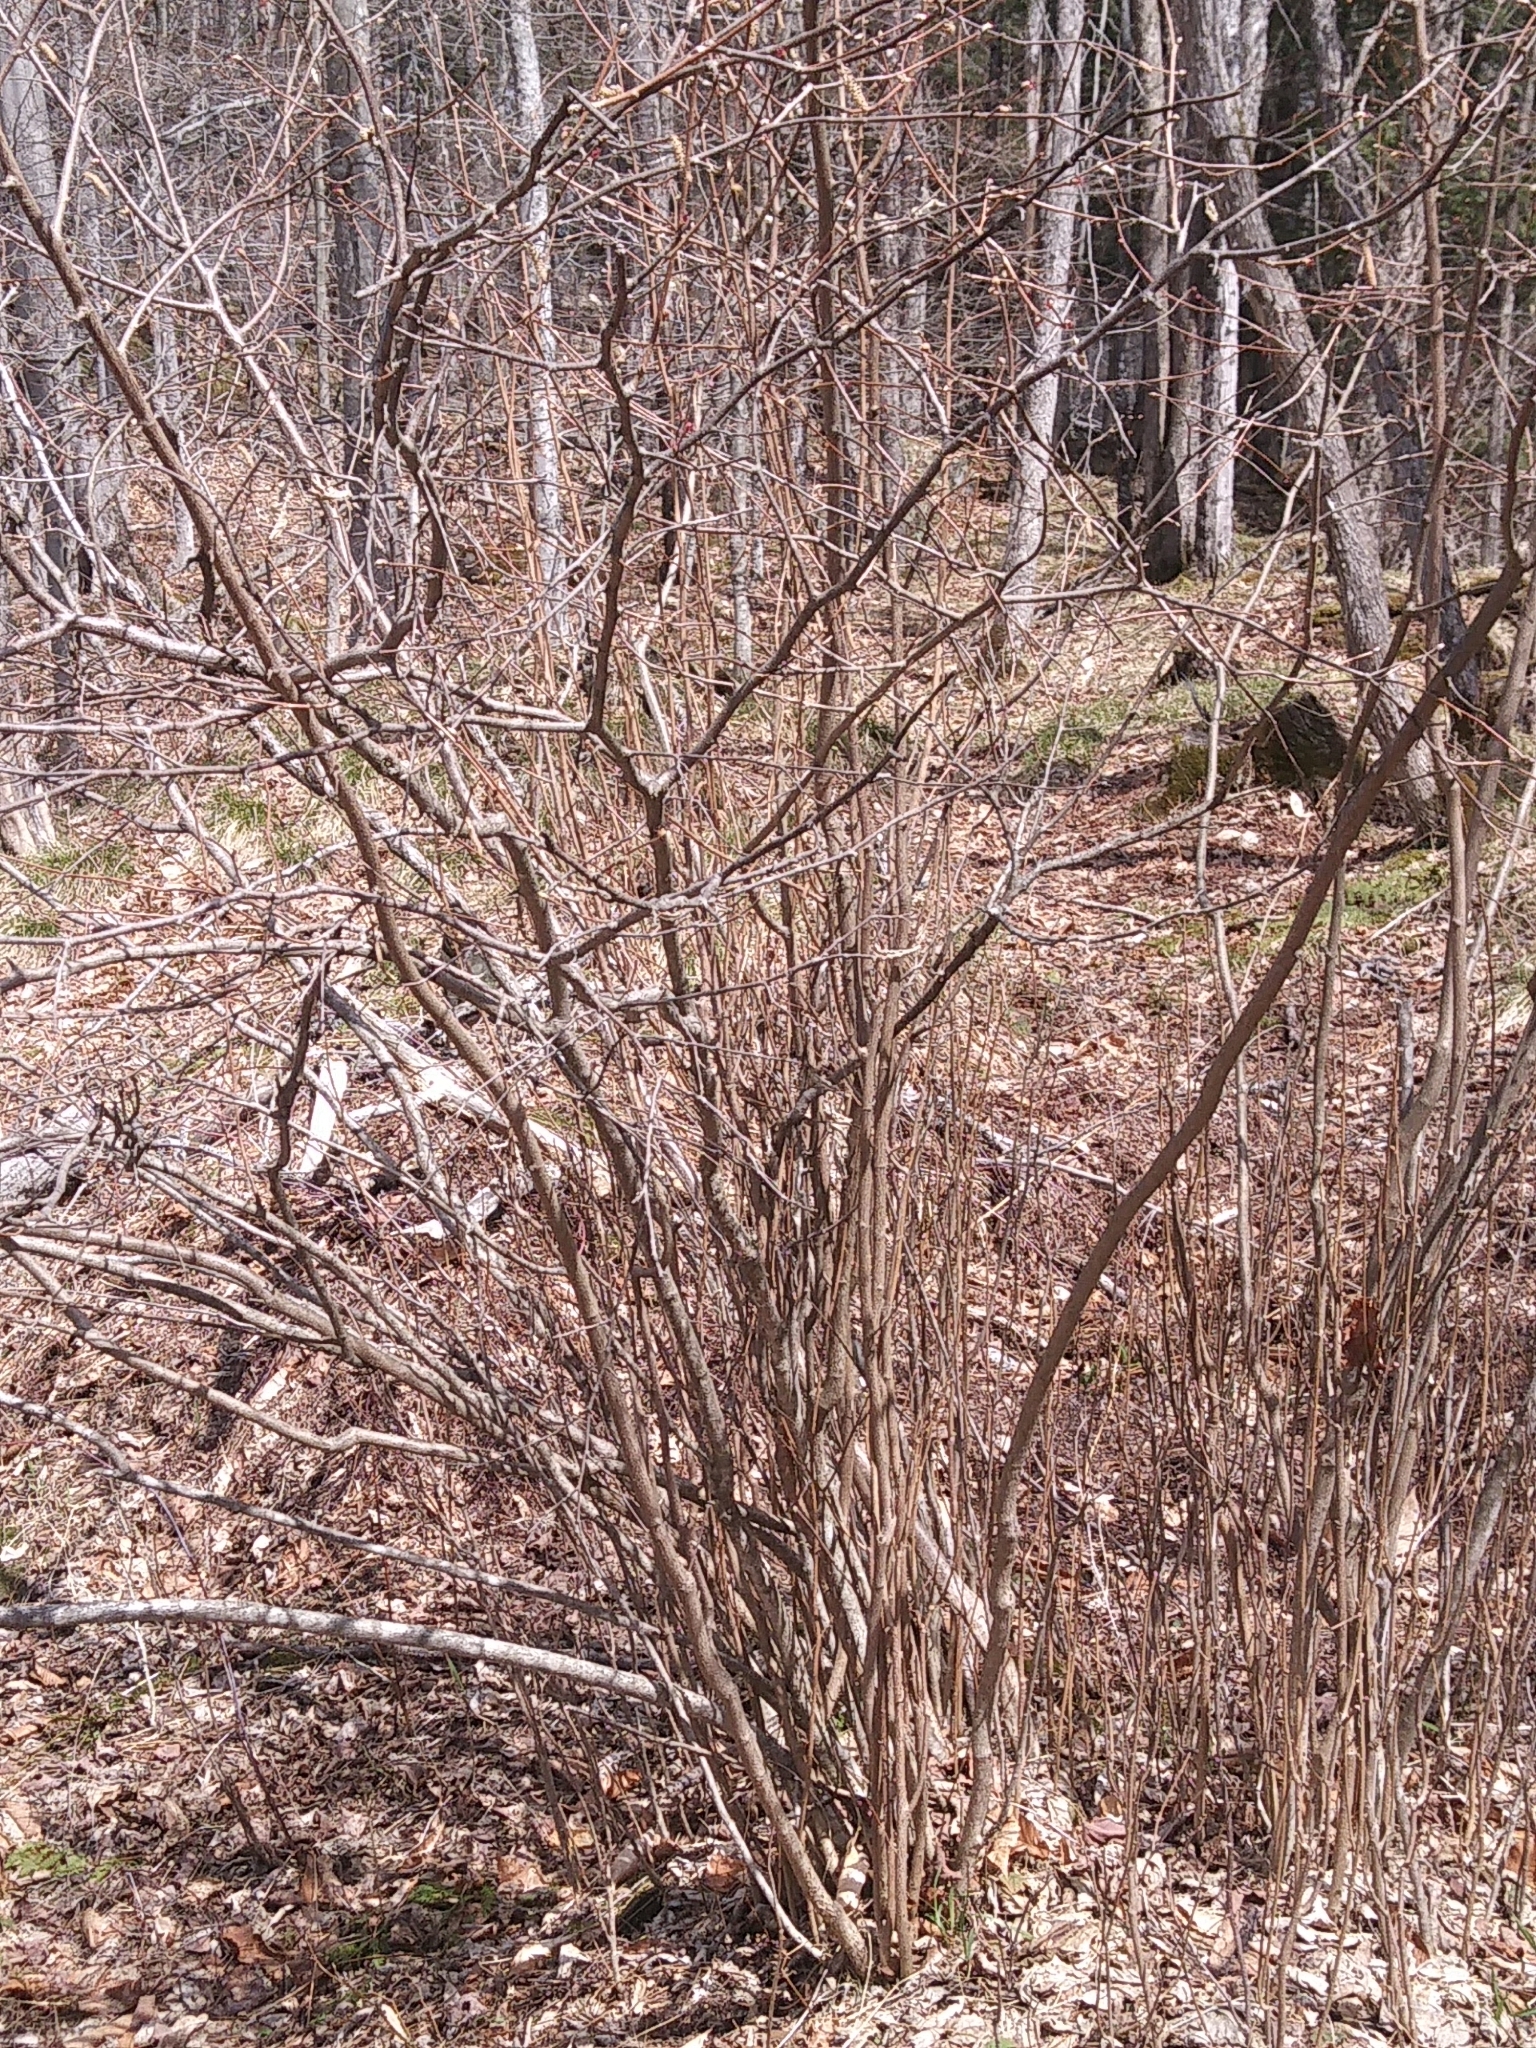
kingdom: Plantae
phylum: Tracheophyta
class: Magnoliopsida
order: Fagales
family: Betulaceae
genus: Corylus
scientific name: Corylus cornuta
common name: Beaked hazel
